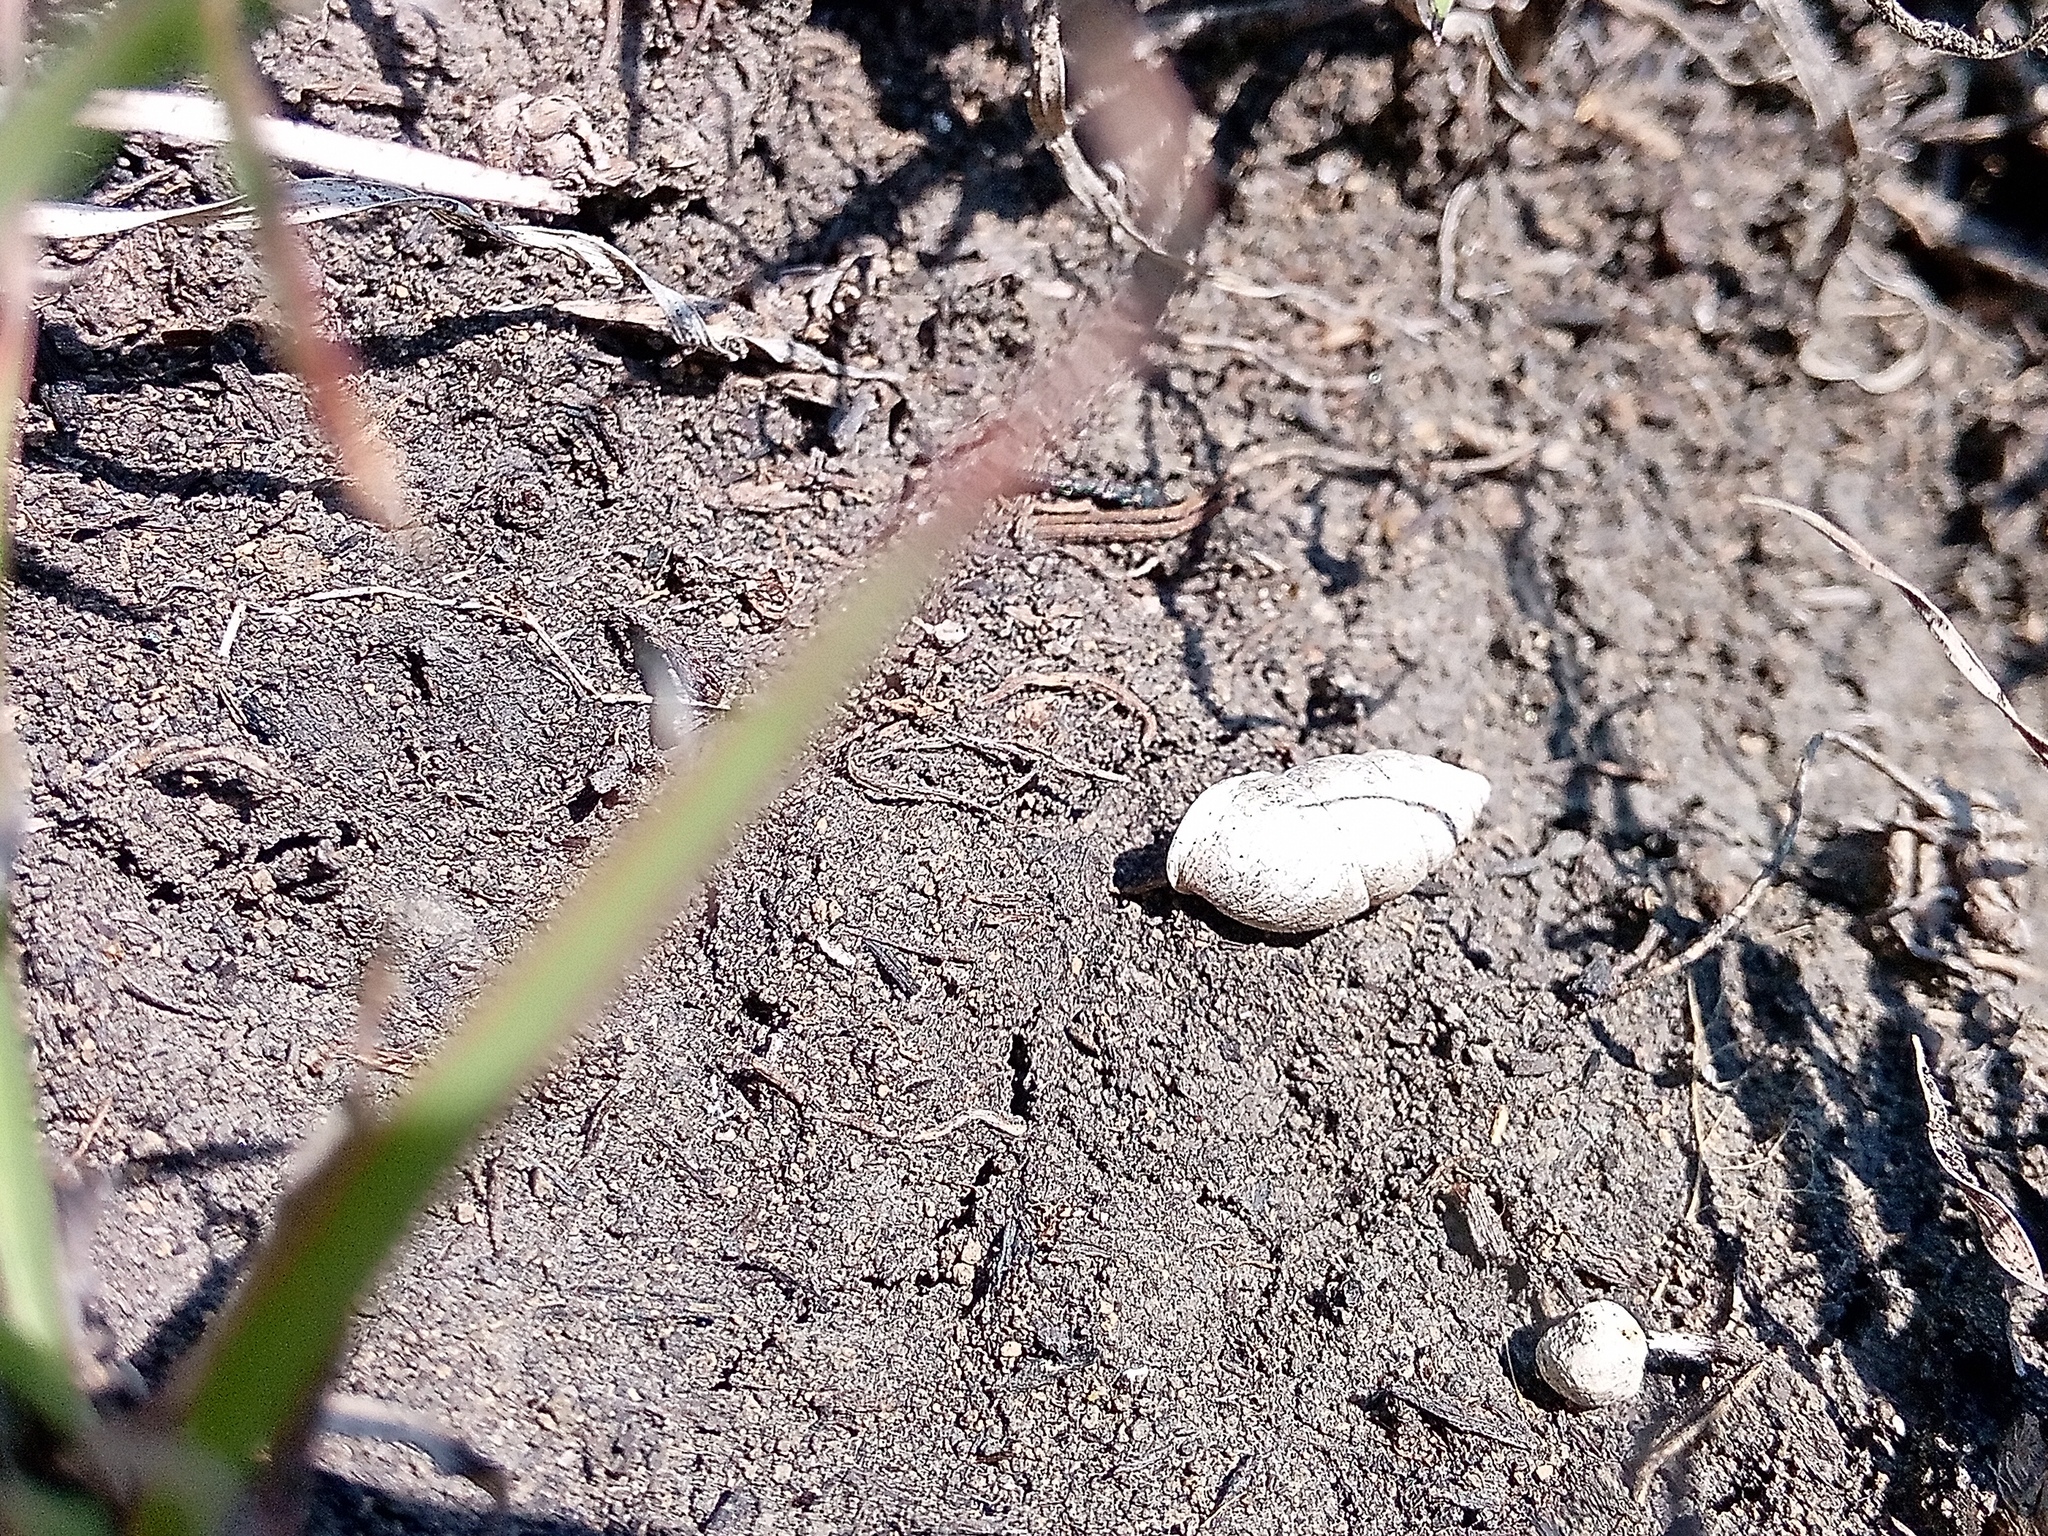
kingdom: Animalia
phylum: Mollusca
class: Gastropoda
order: Stylommatophora
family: Enidae
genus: Chondrula
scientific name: Chondrula tridens
